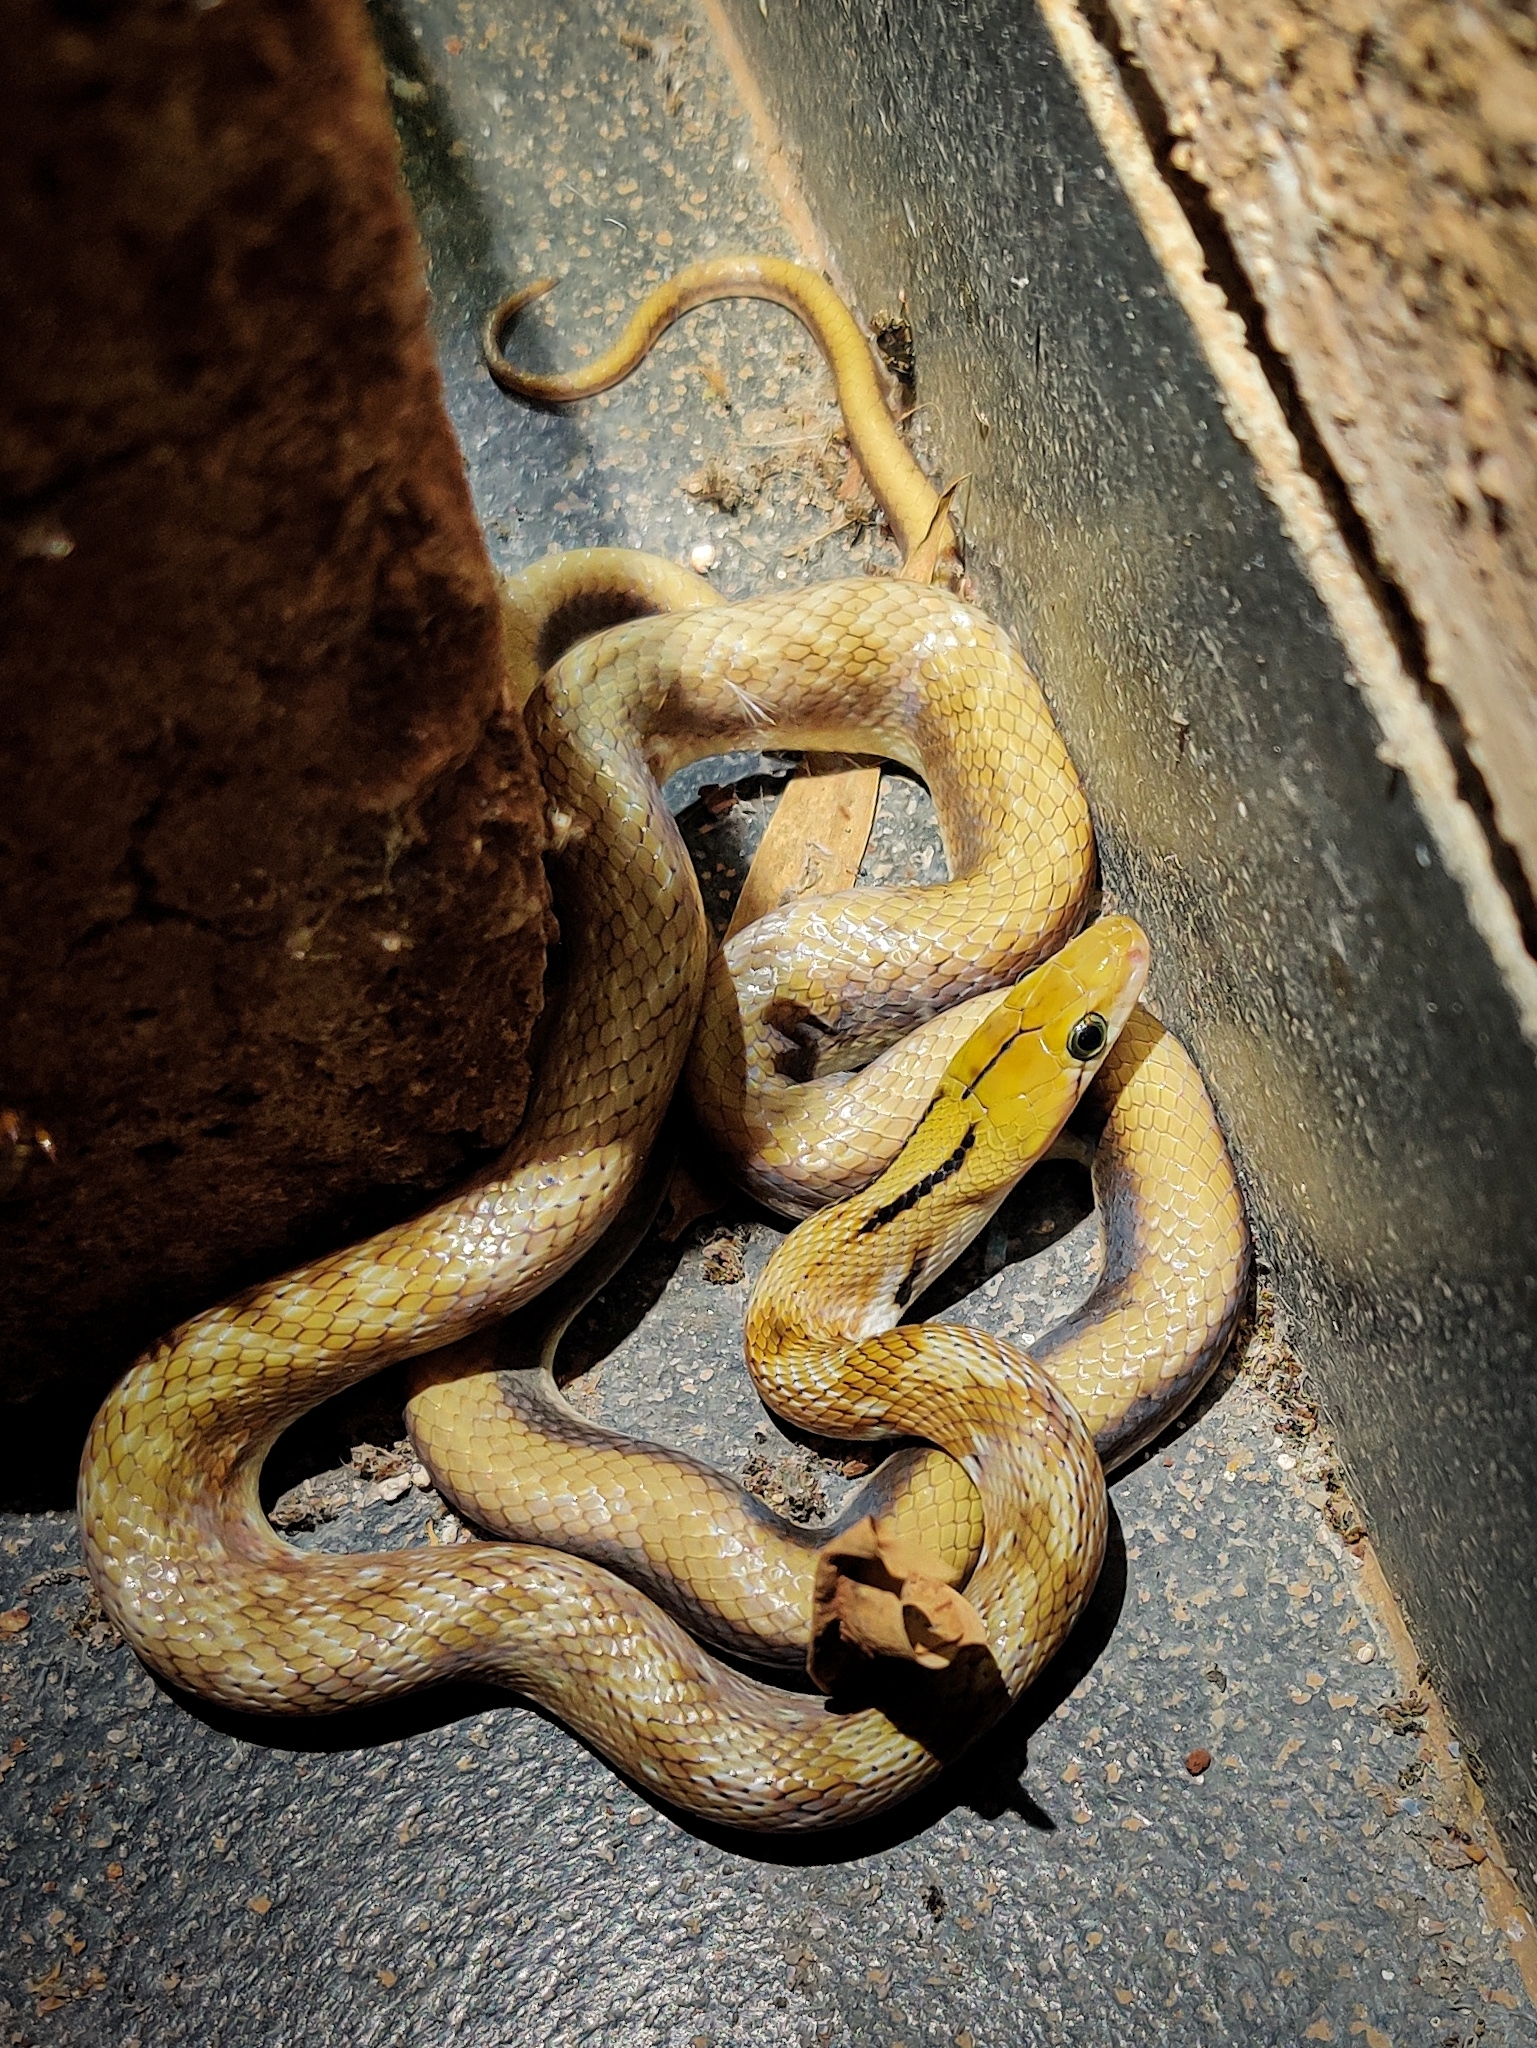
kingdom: Animalia
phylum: Chordata
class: Squamata
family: Colubridae
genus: Coelognathus
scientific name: Coelognathus helena
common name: Trinket snake
